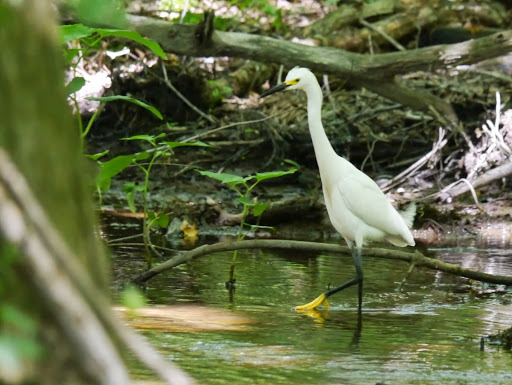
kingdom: Animalia
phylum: Chordata
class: Aves
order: Pelecaniformes
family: Ardeidae
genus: Egretta
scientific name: Egretta thula
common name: Snowy egret
